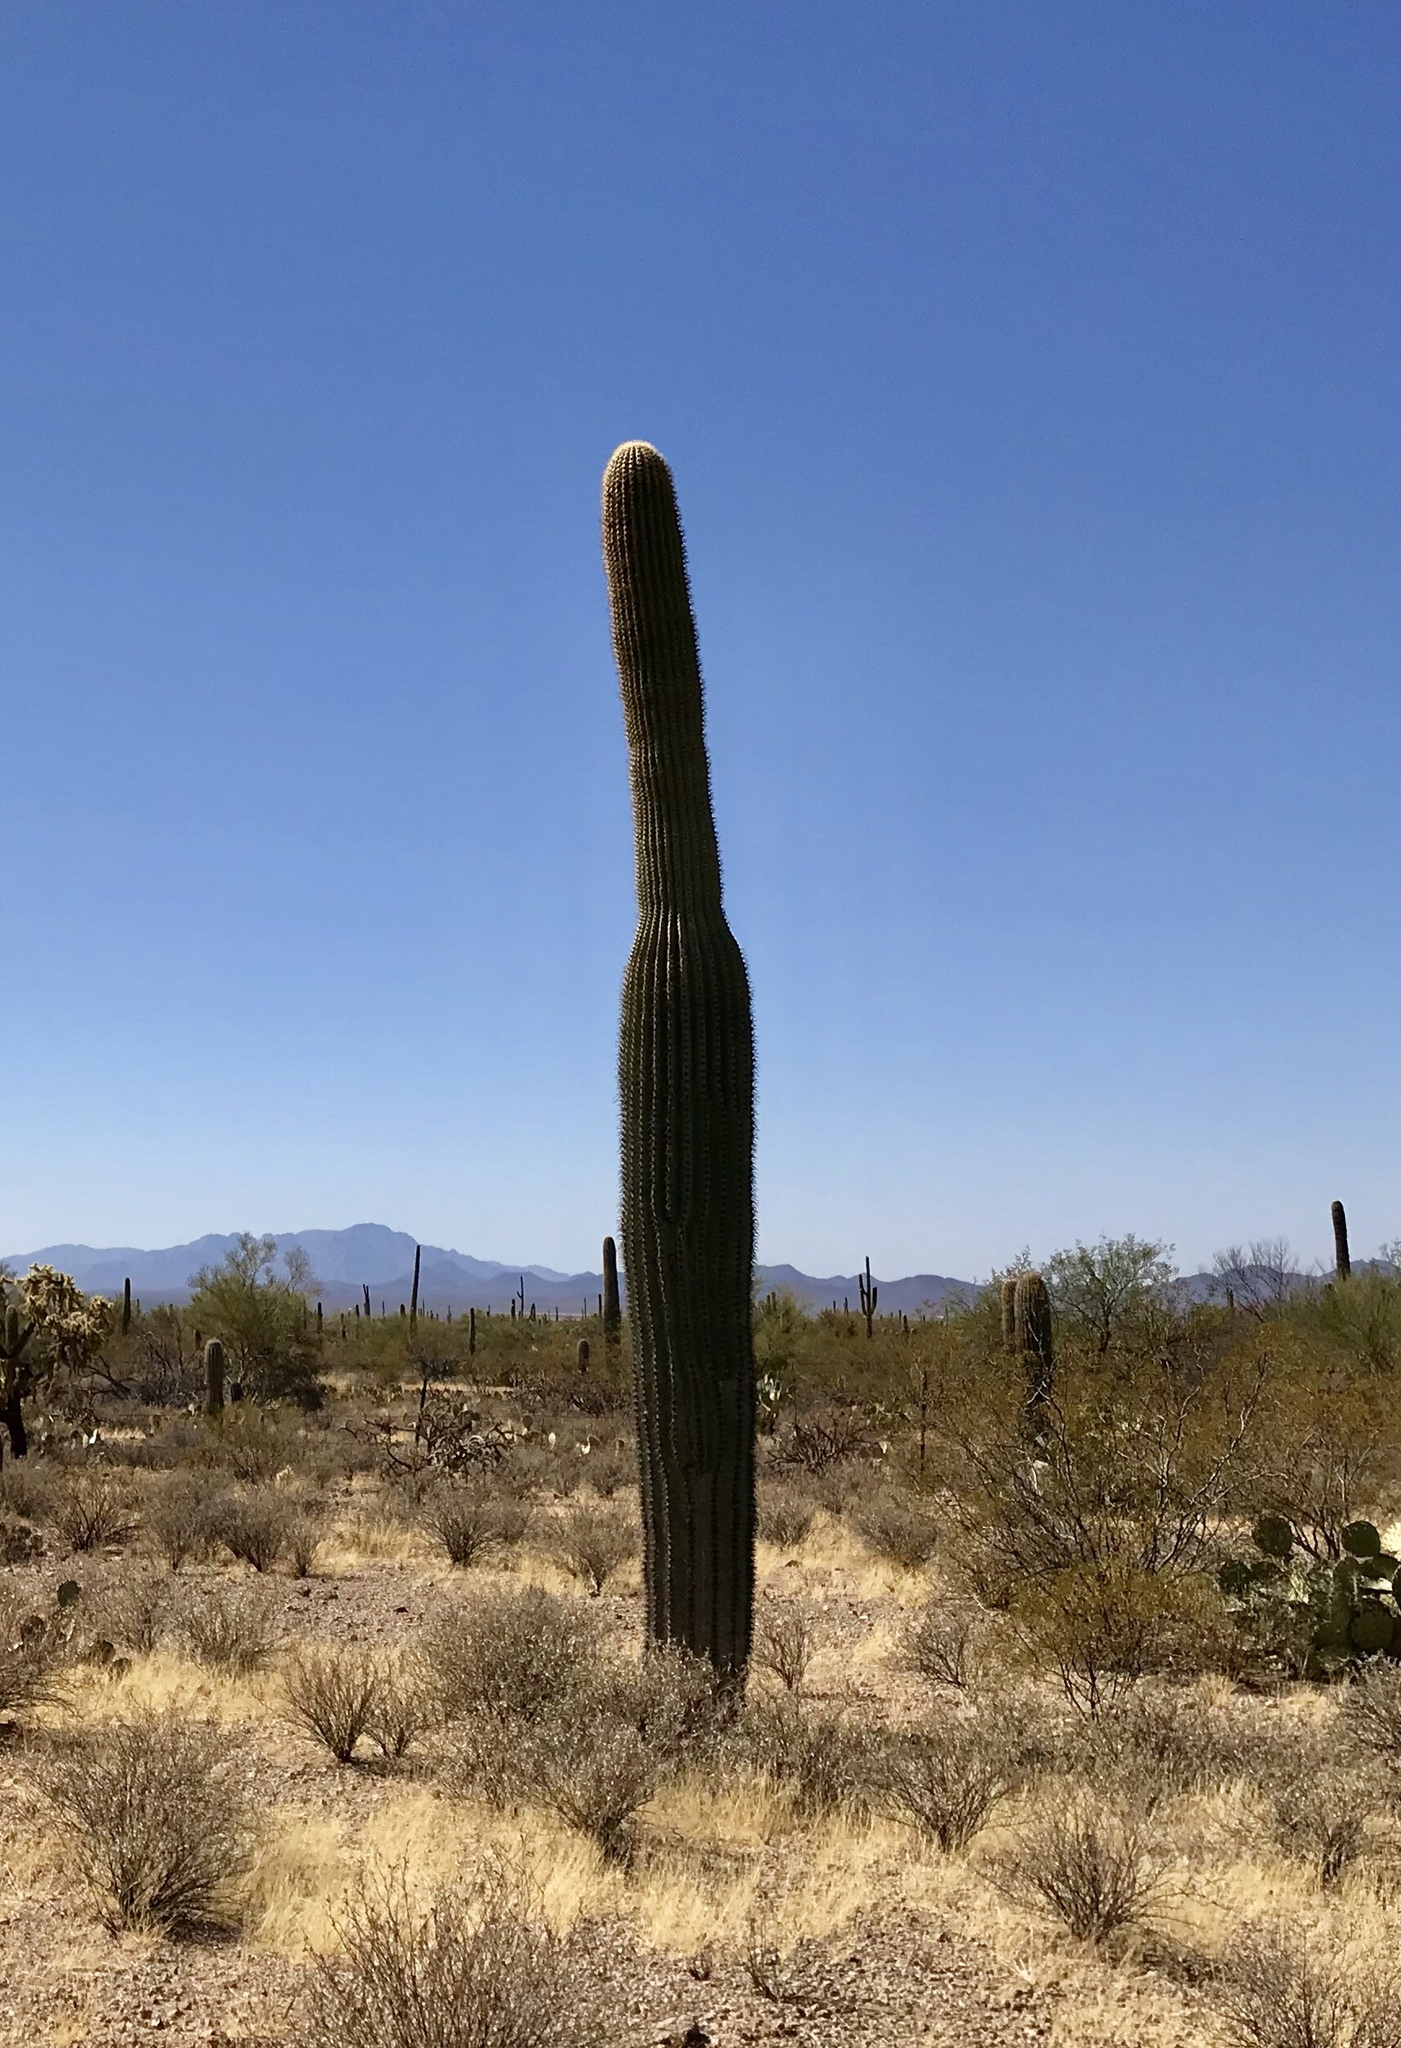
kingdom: Plantae
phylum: Tracheophyta
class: Magnoliopsida
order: Caryophyllales
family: Cactaceae
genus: Carnegiea
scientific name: Carnegiea gigantea
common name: Saguaro
